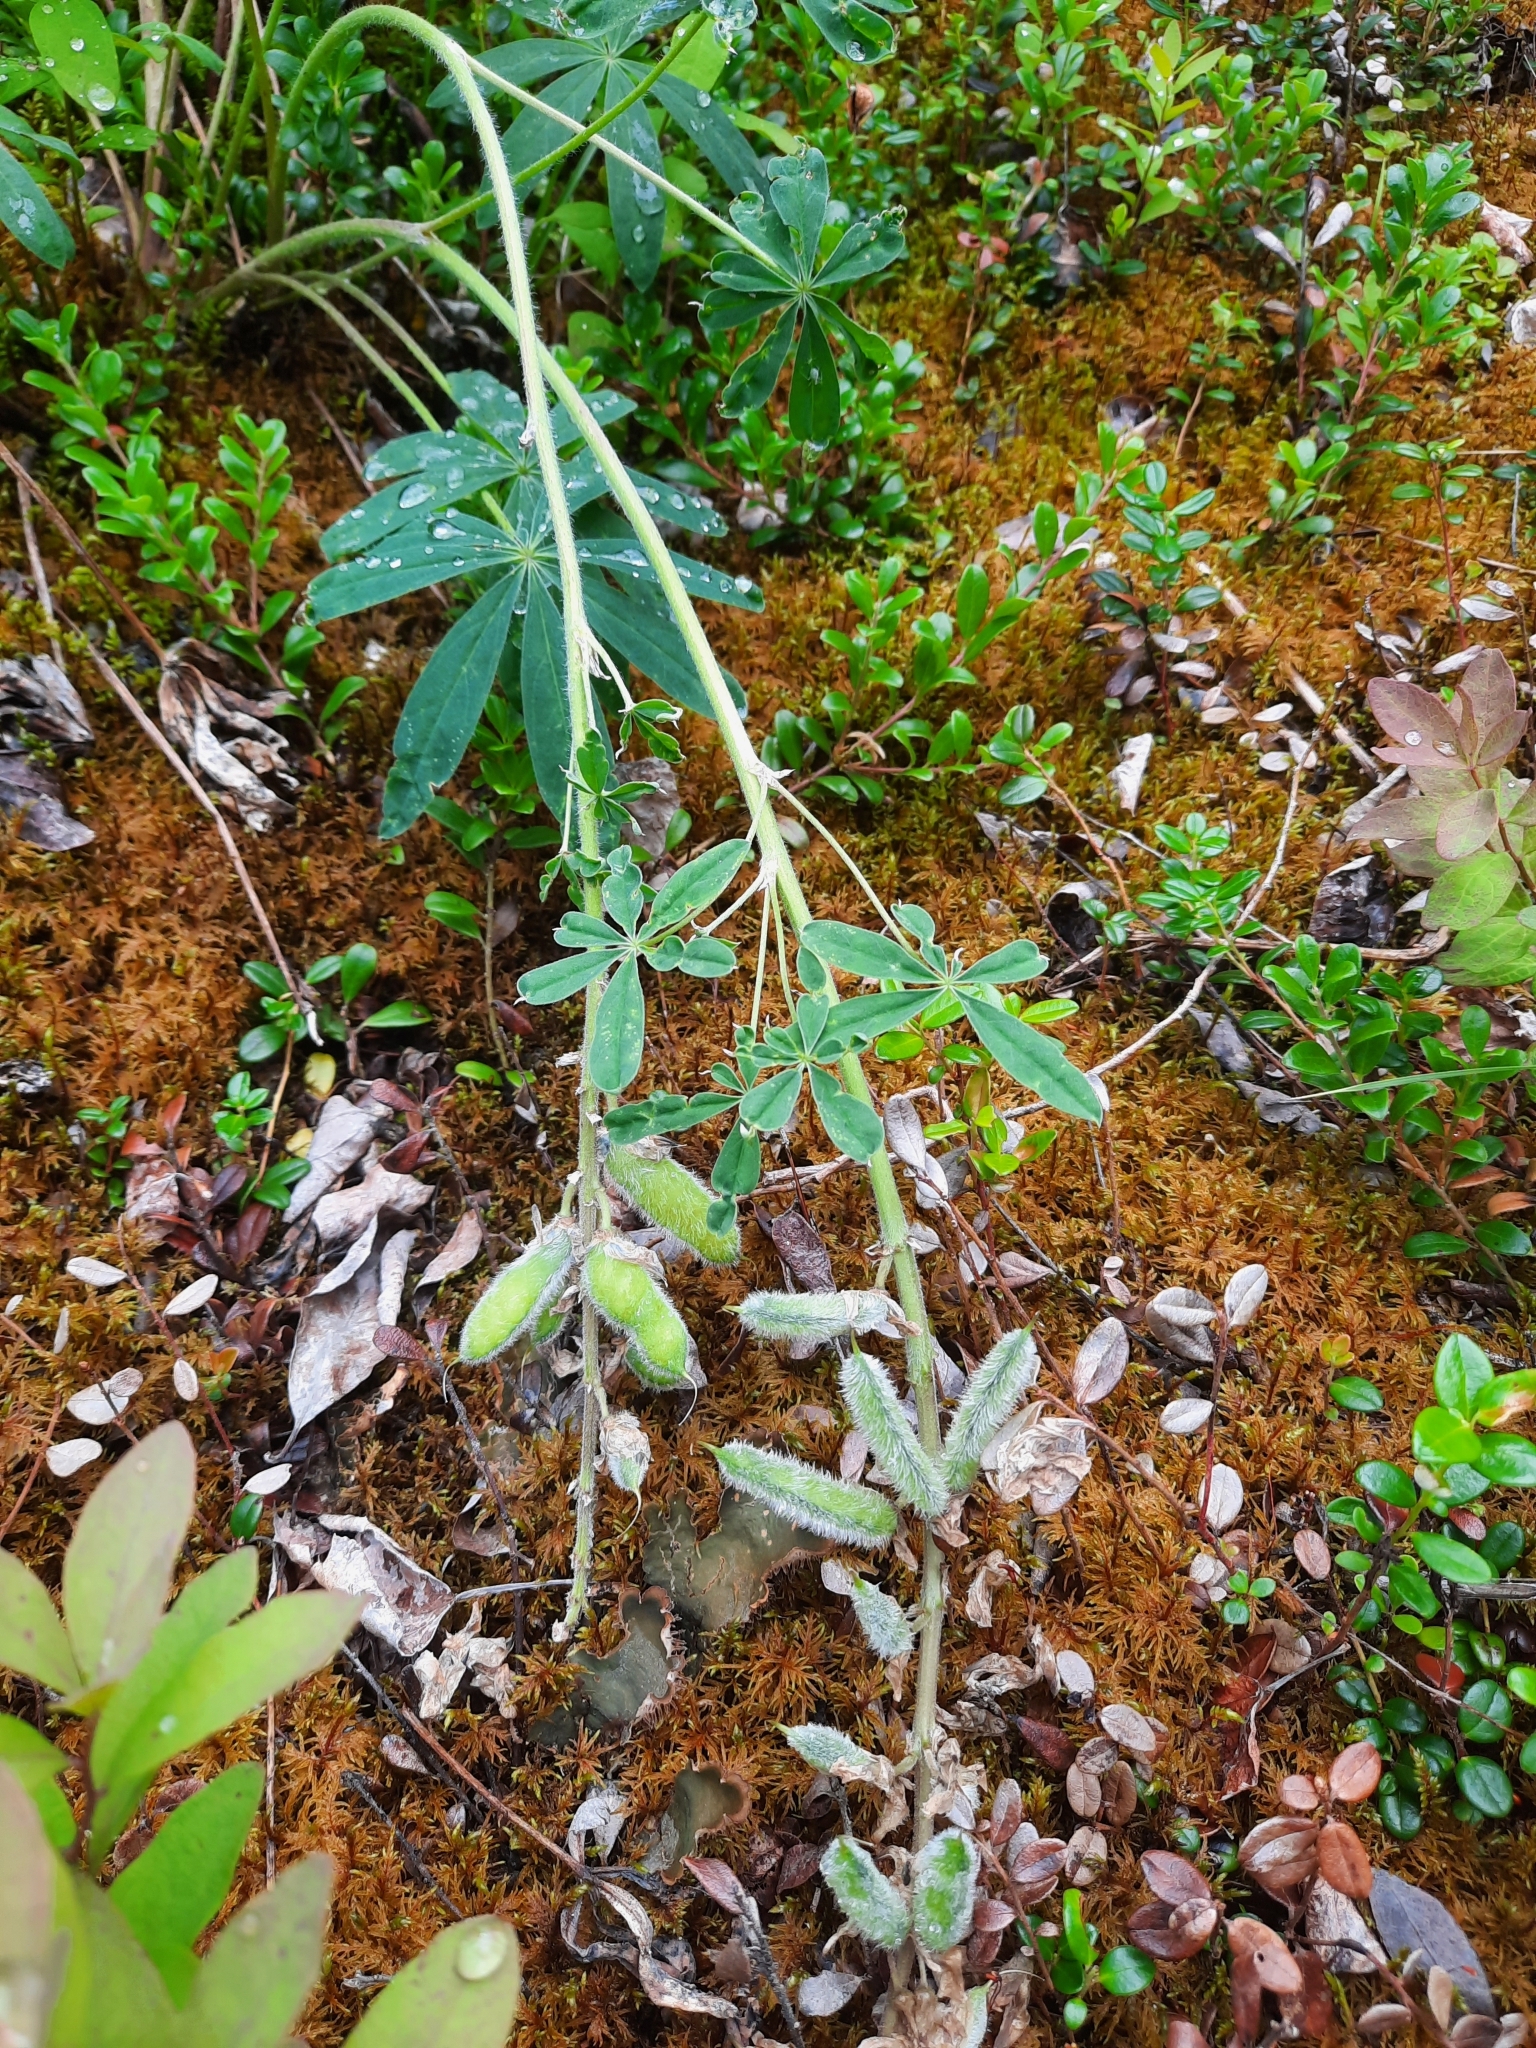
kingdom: Plantae
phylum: Tracheophyta
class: Magnoliopsida
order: Fabales
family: Fabaceae
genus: Lupinus
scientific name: Lupinus arcticus
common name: Arctic lupine
